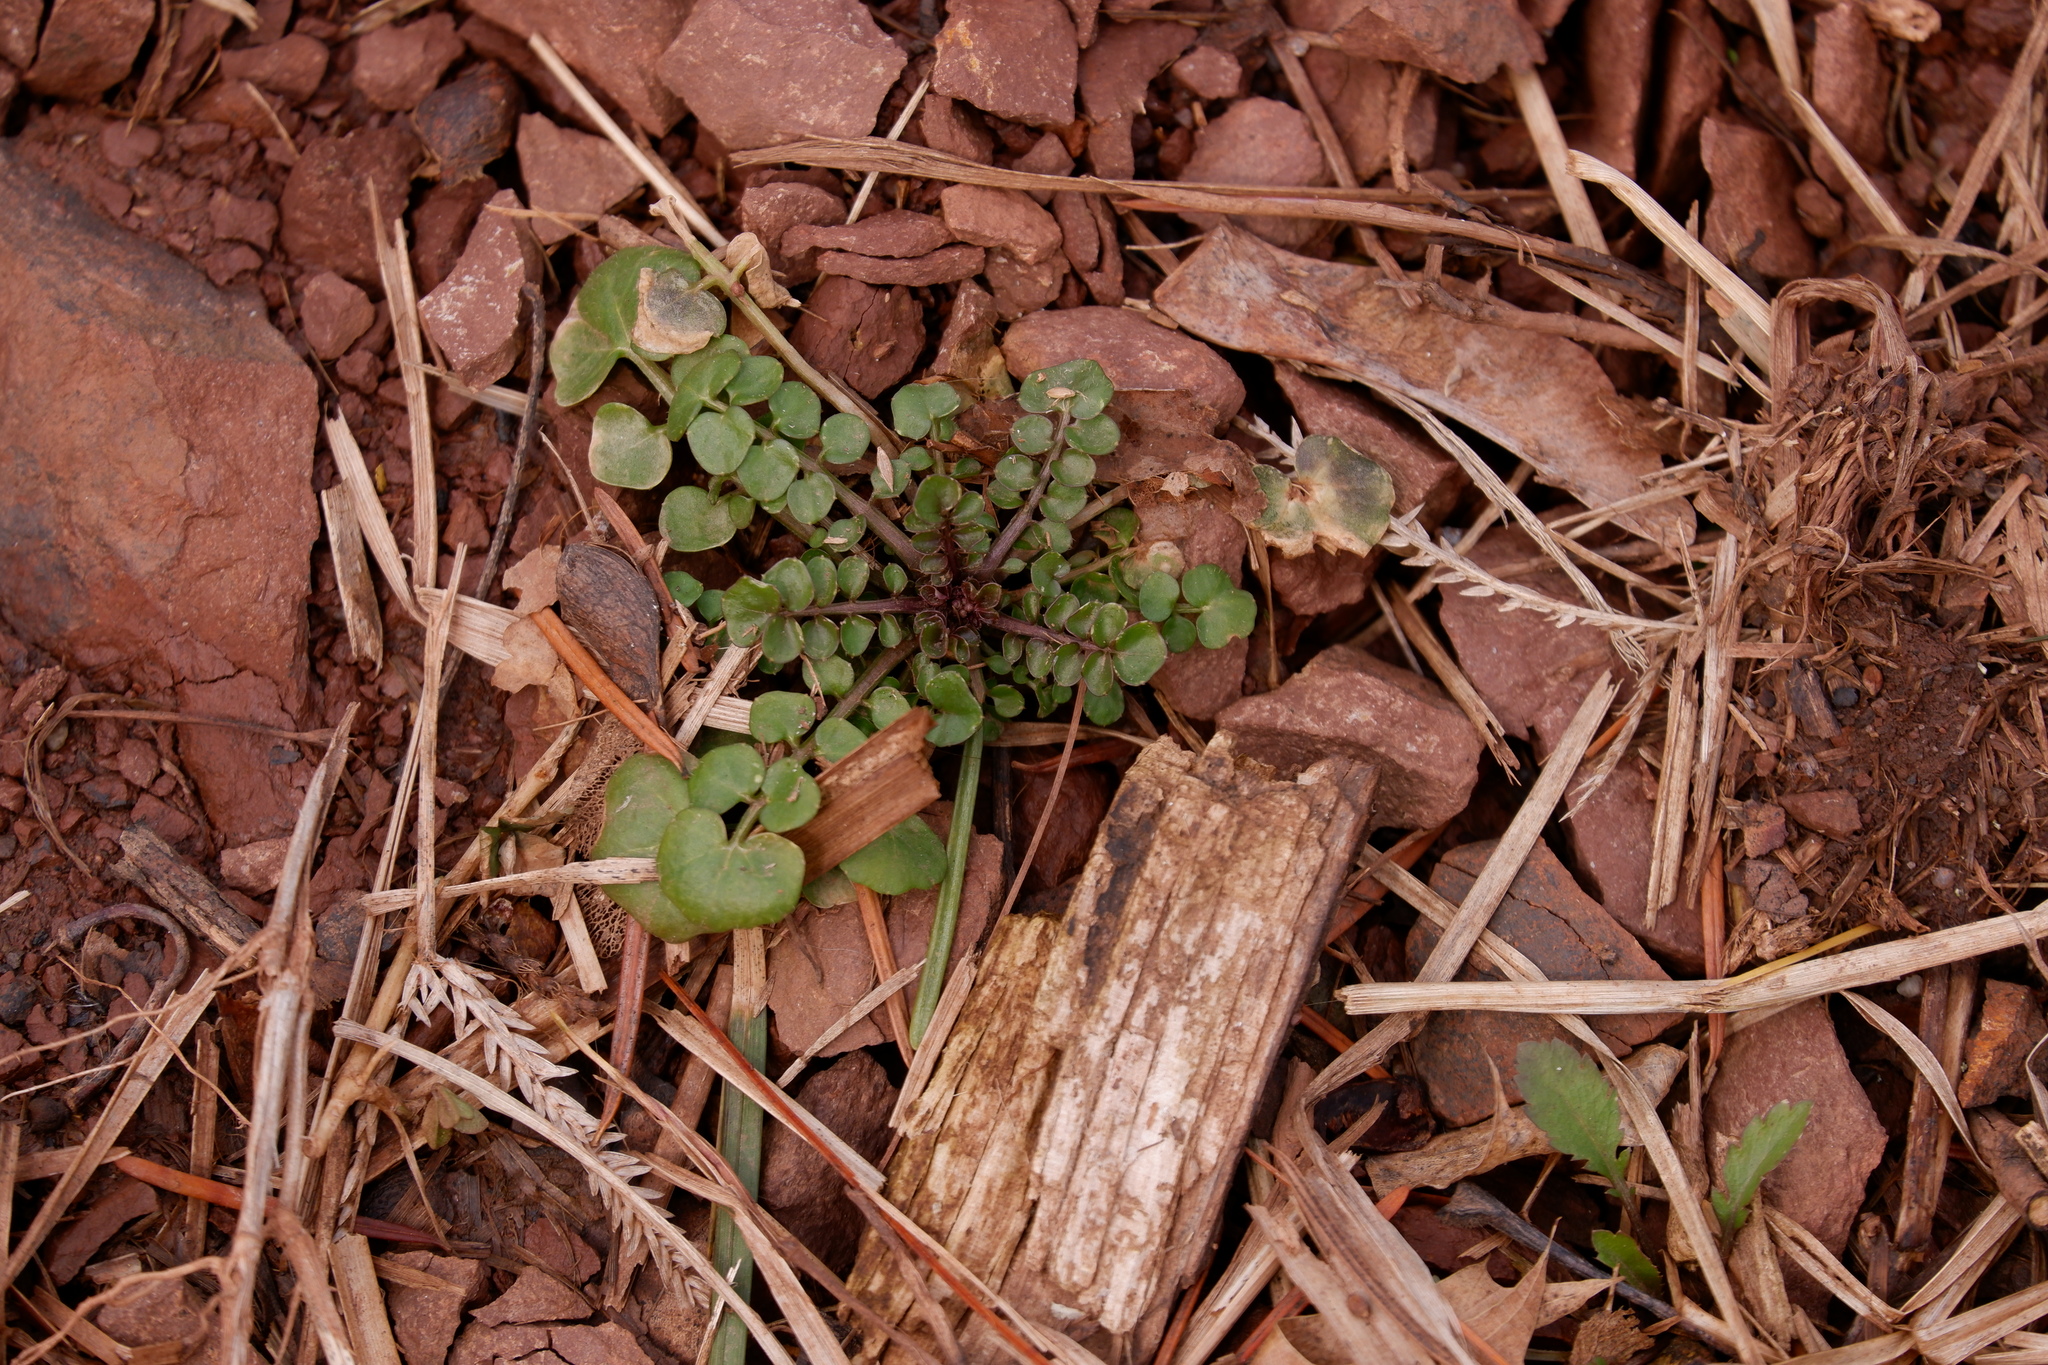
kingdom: Plantae
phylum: Tracheophyta
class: Magnoliopsida
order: Brassicales
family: Brassicaceae
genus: Cardamine
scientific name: Cardamine hirsuta
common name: Hairy bittercress
